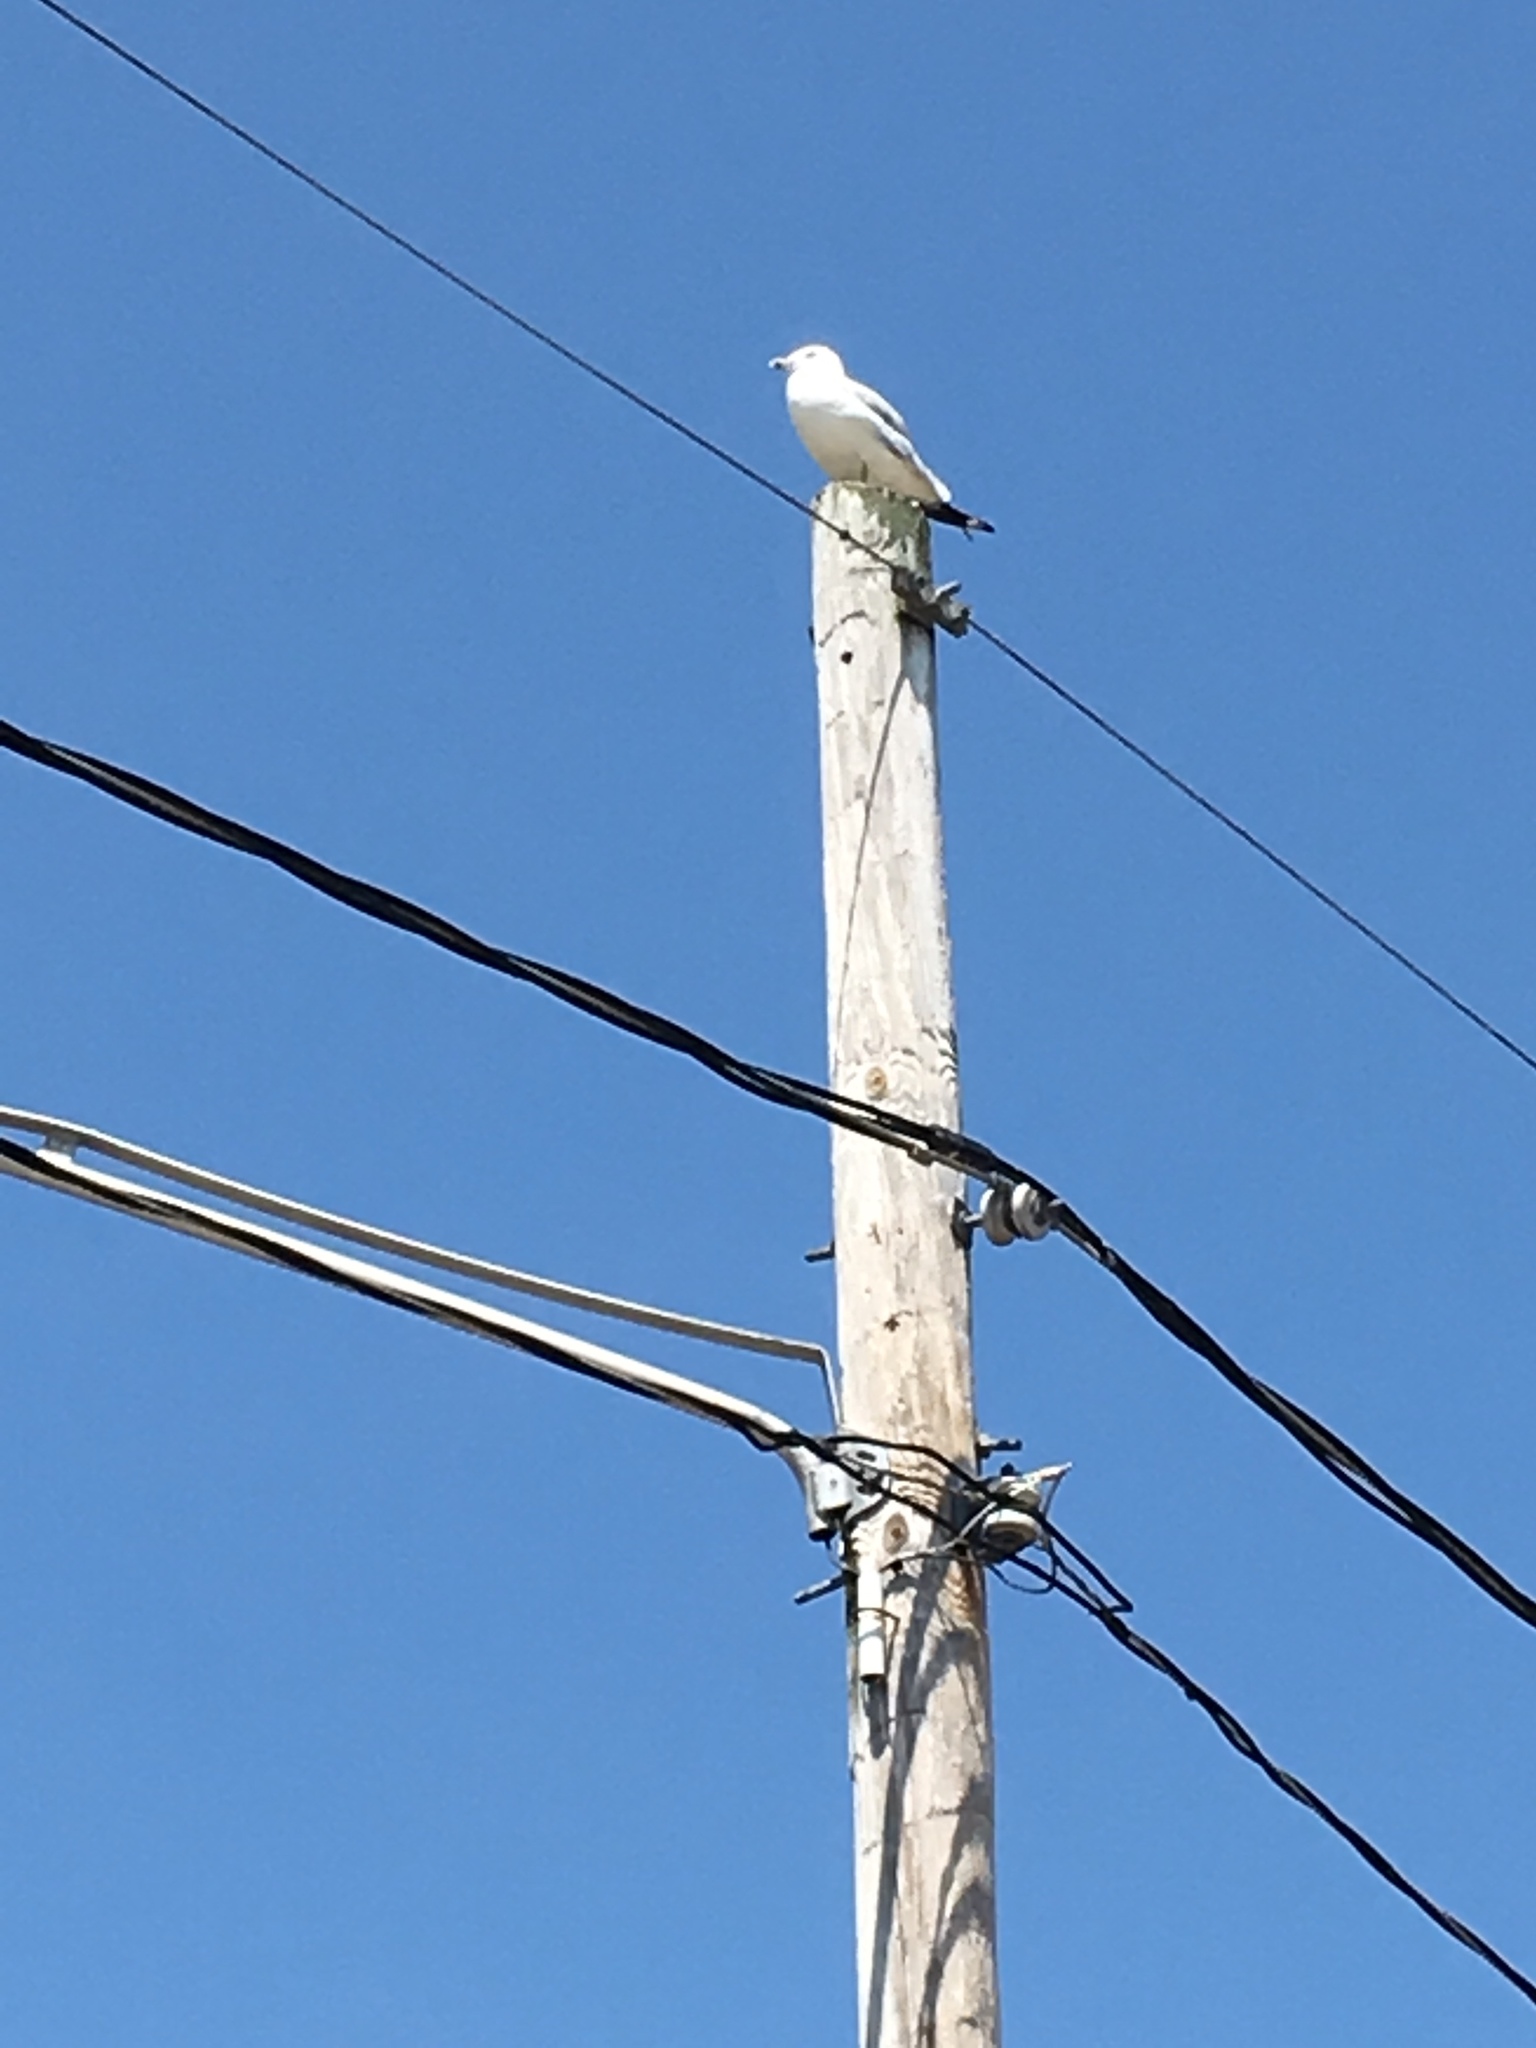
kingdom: Animalia
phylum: Chordata
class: Aves
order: Charadriiformes
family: Laridae
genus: Larus
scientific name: Larus delawarensis
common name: Ring-billed gull
